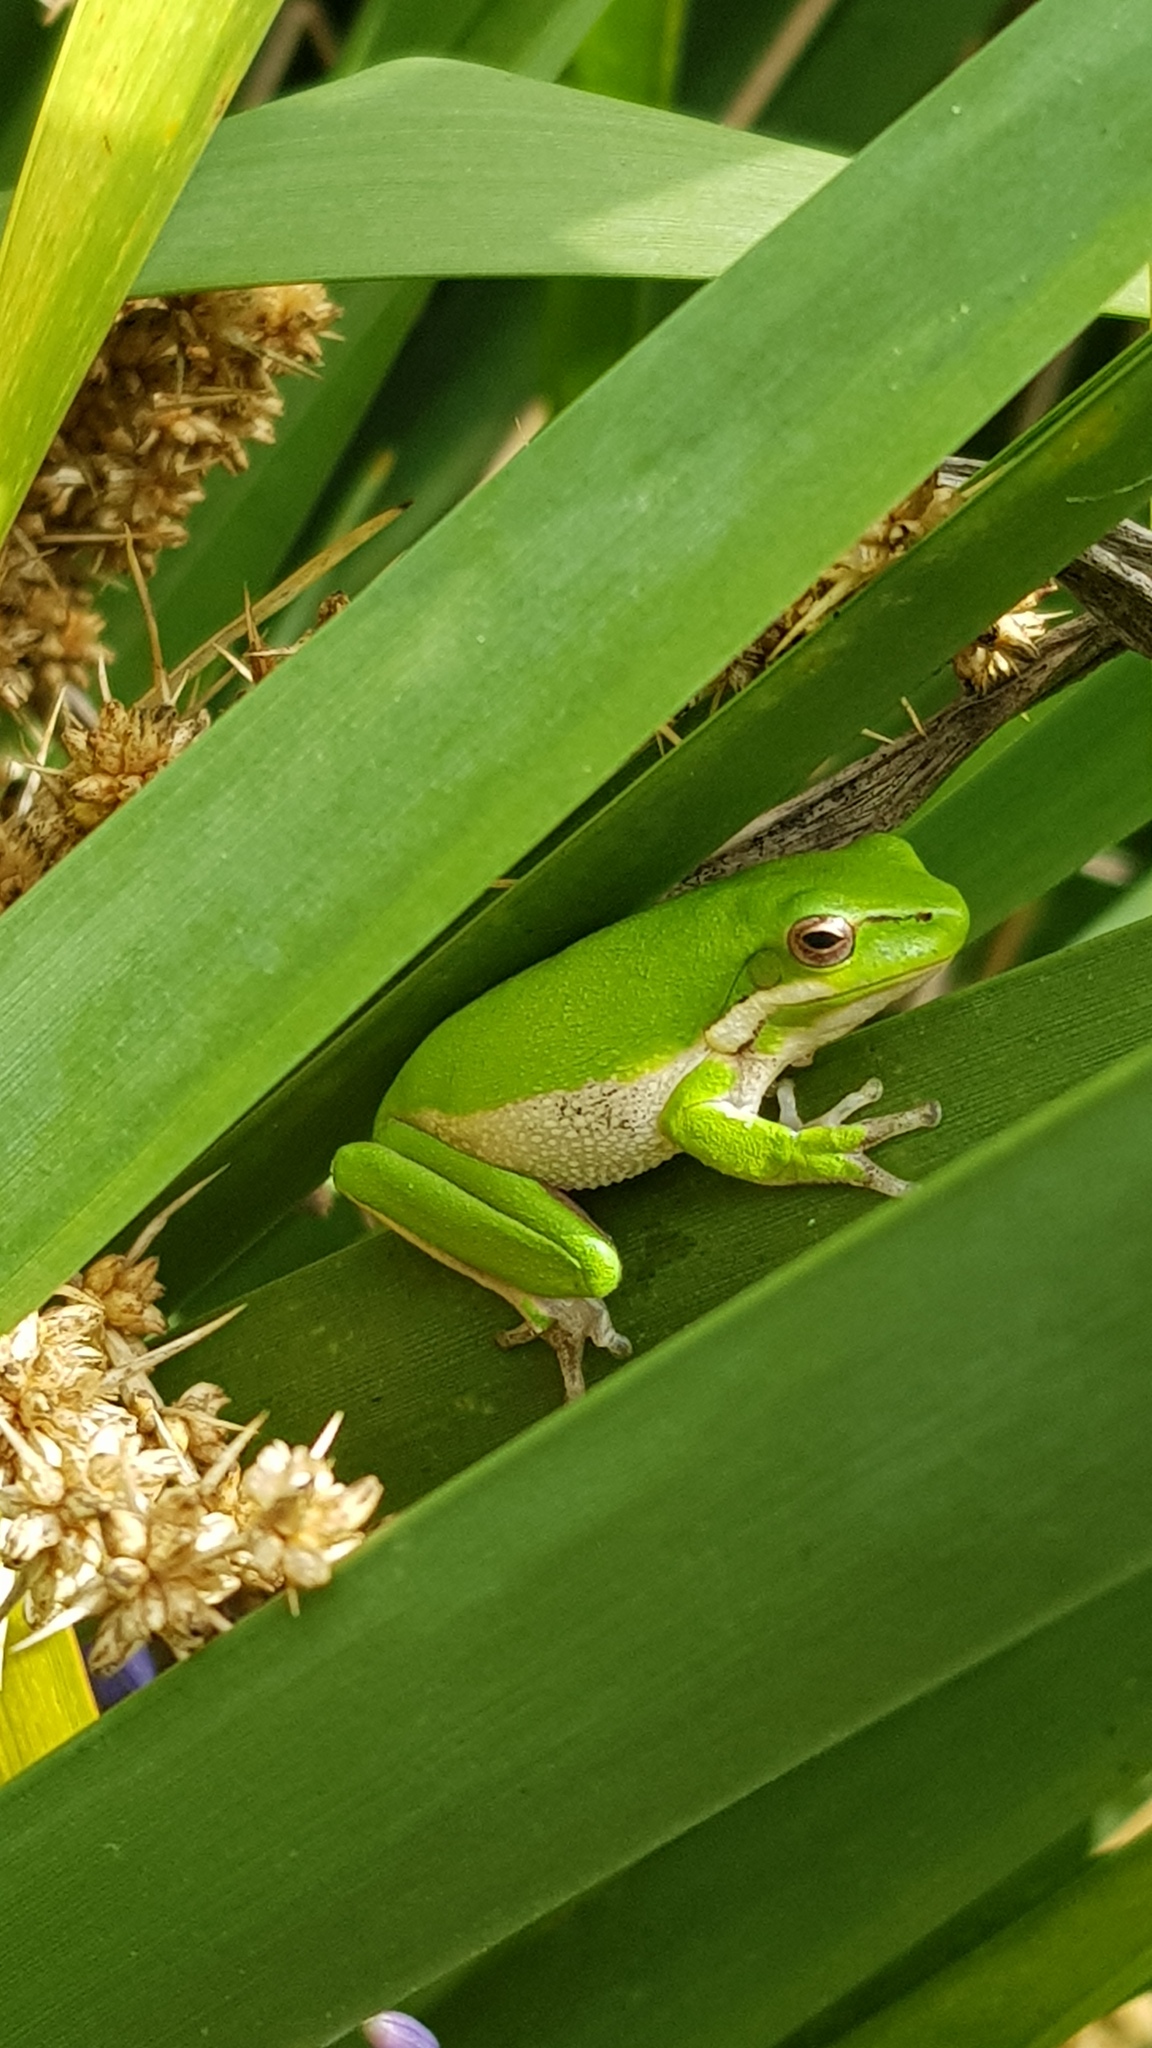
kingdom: Animalia
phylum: Chordata
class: Amphibia
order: Anura
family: Pelodryadidae
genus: Litoria
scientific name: Litoria fallax
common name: Eastern dwarf treefrog
